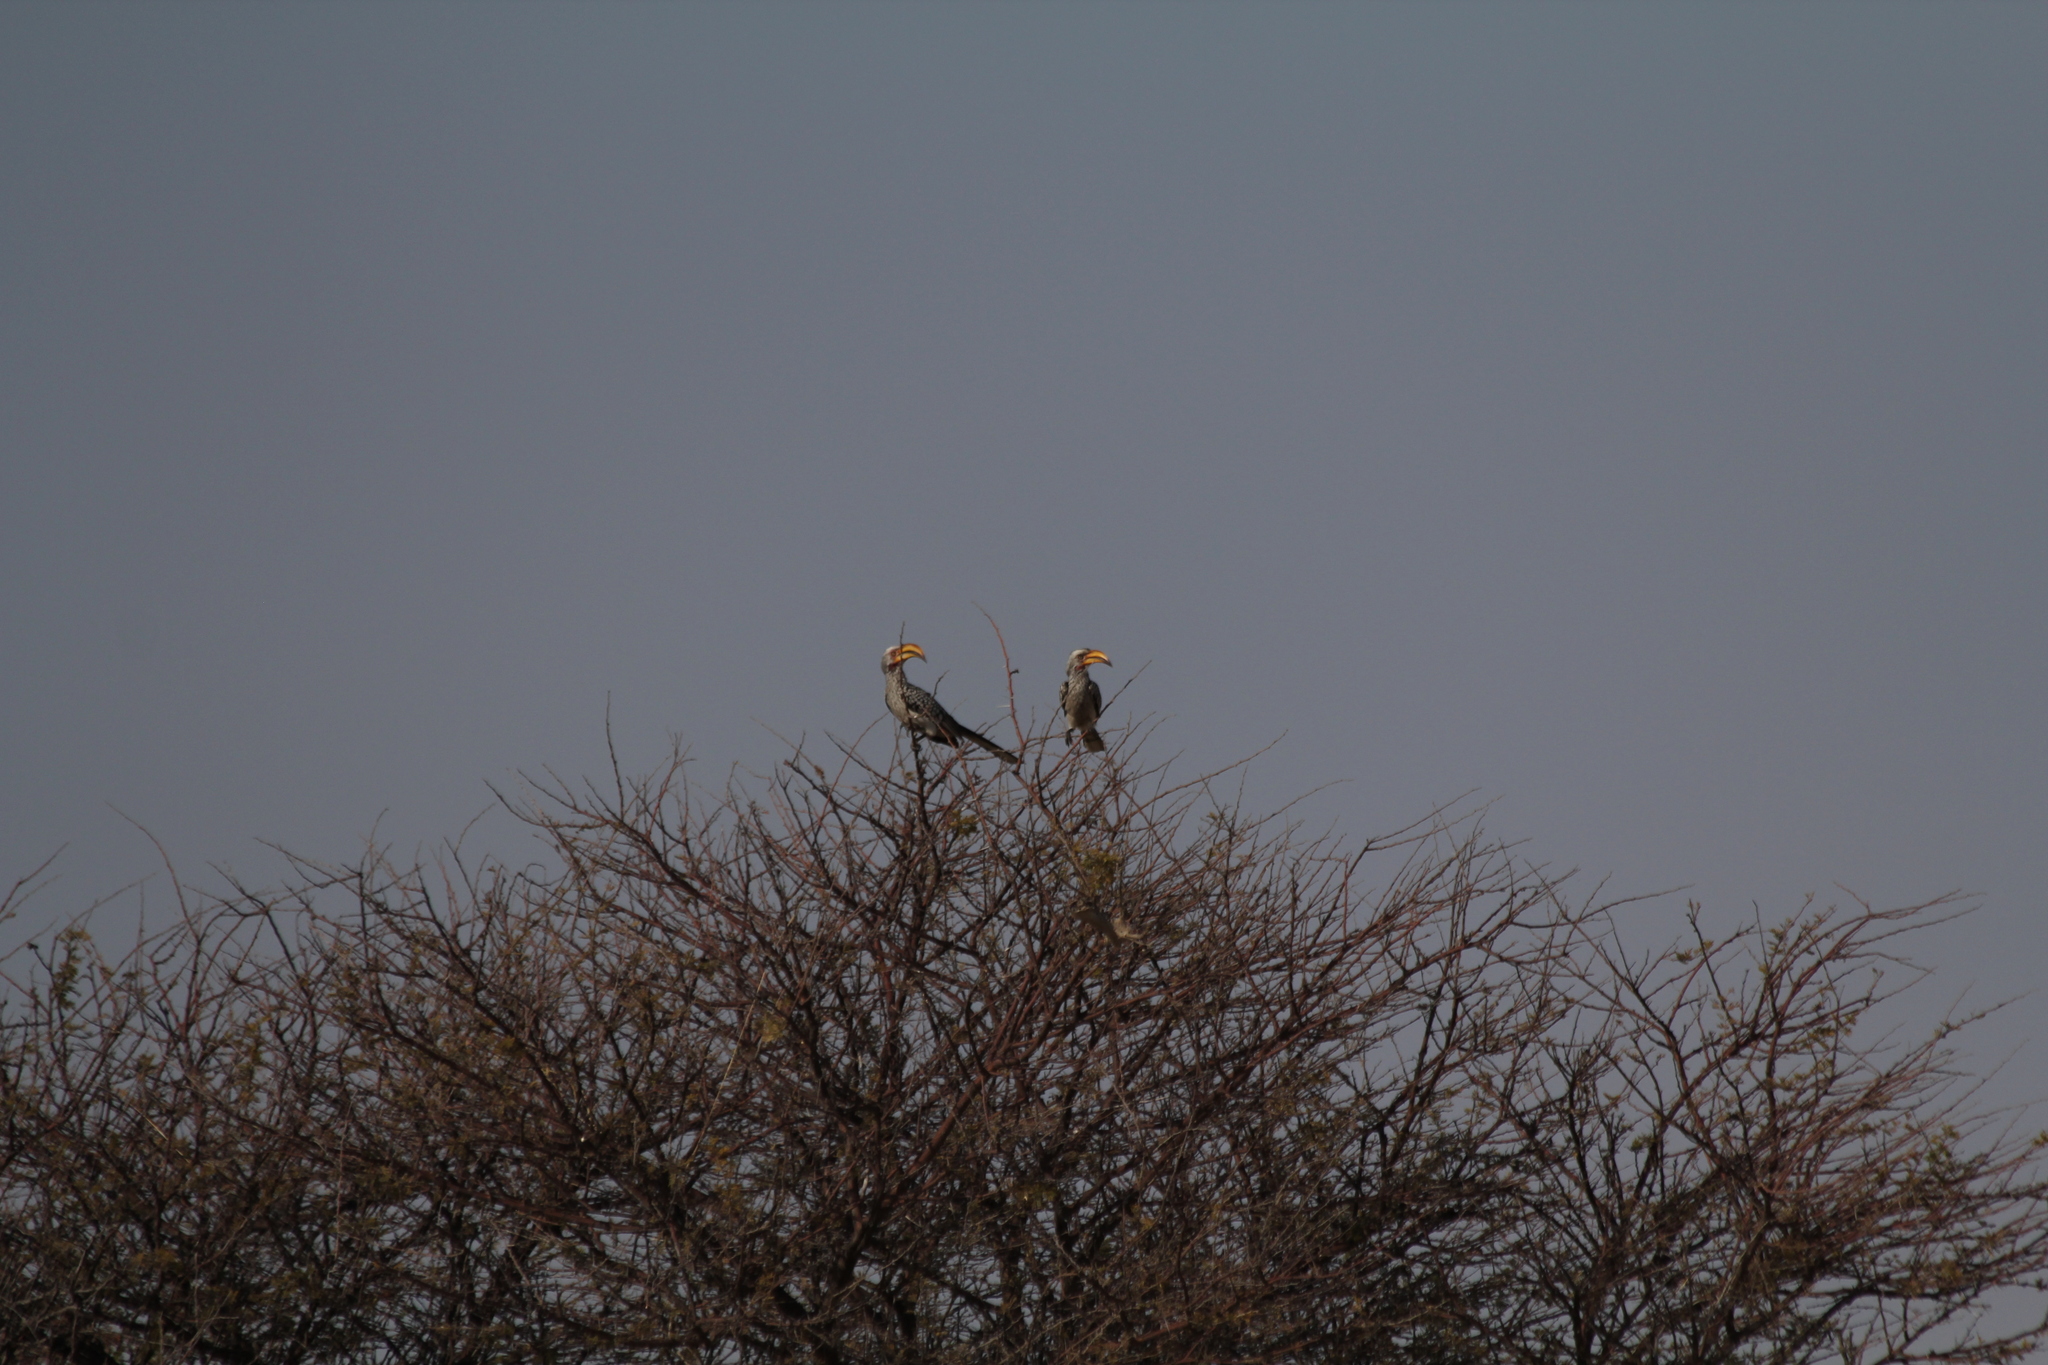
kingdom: Animalia
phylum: Chordata
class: Aves
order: Bucerotiformes
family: Bucerotidae
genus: Tockus
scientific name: Tockus leucomelas
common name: Southern yellow-billed hornbill
